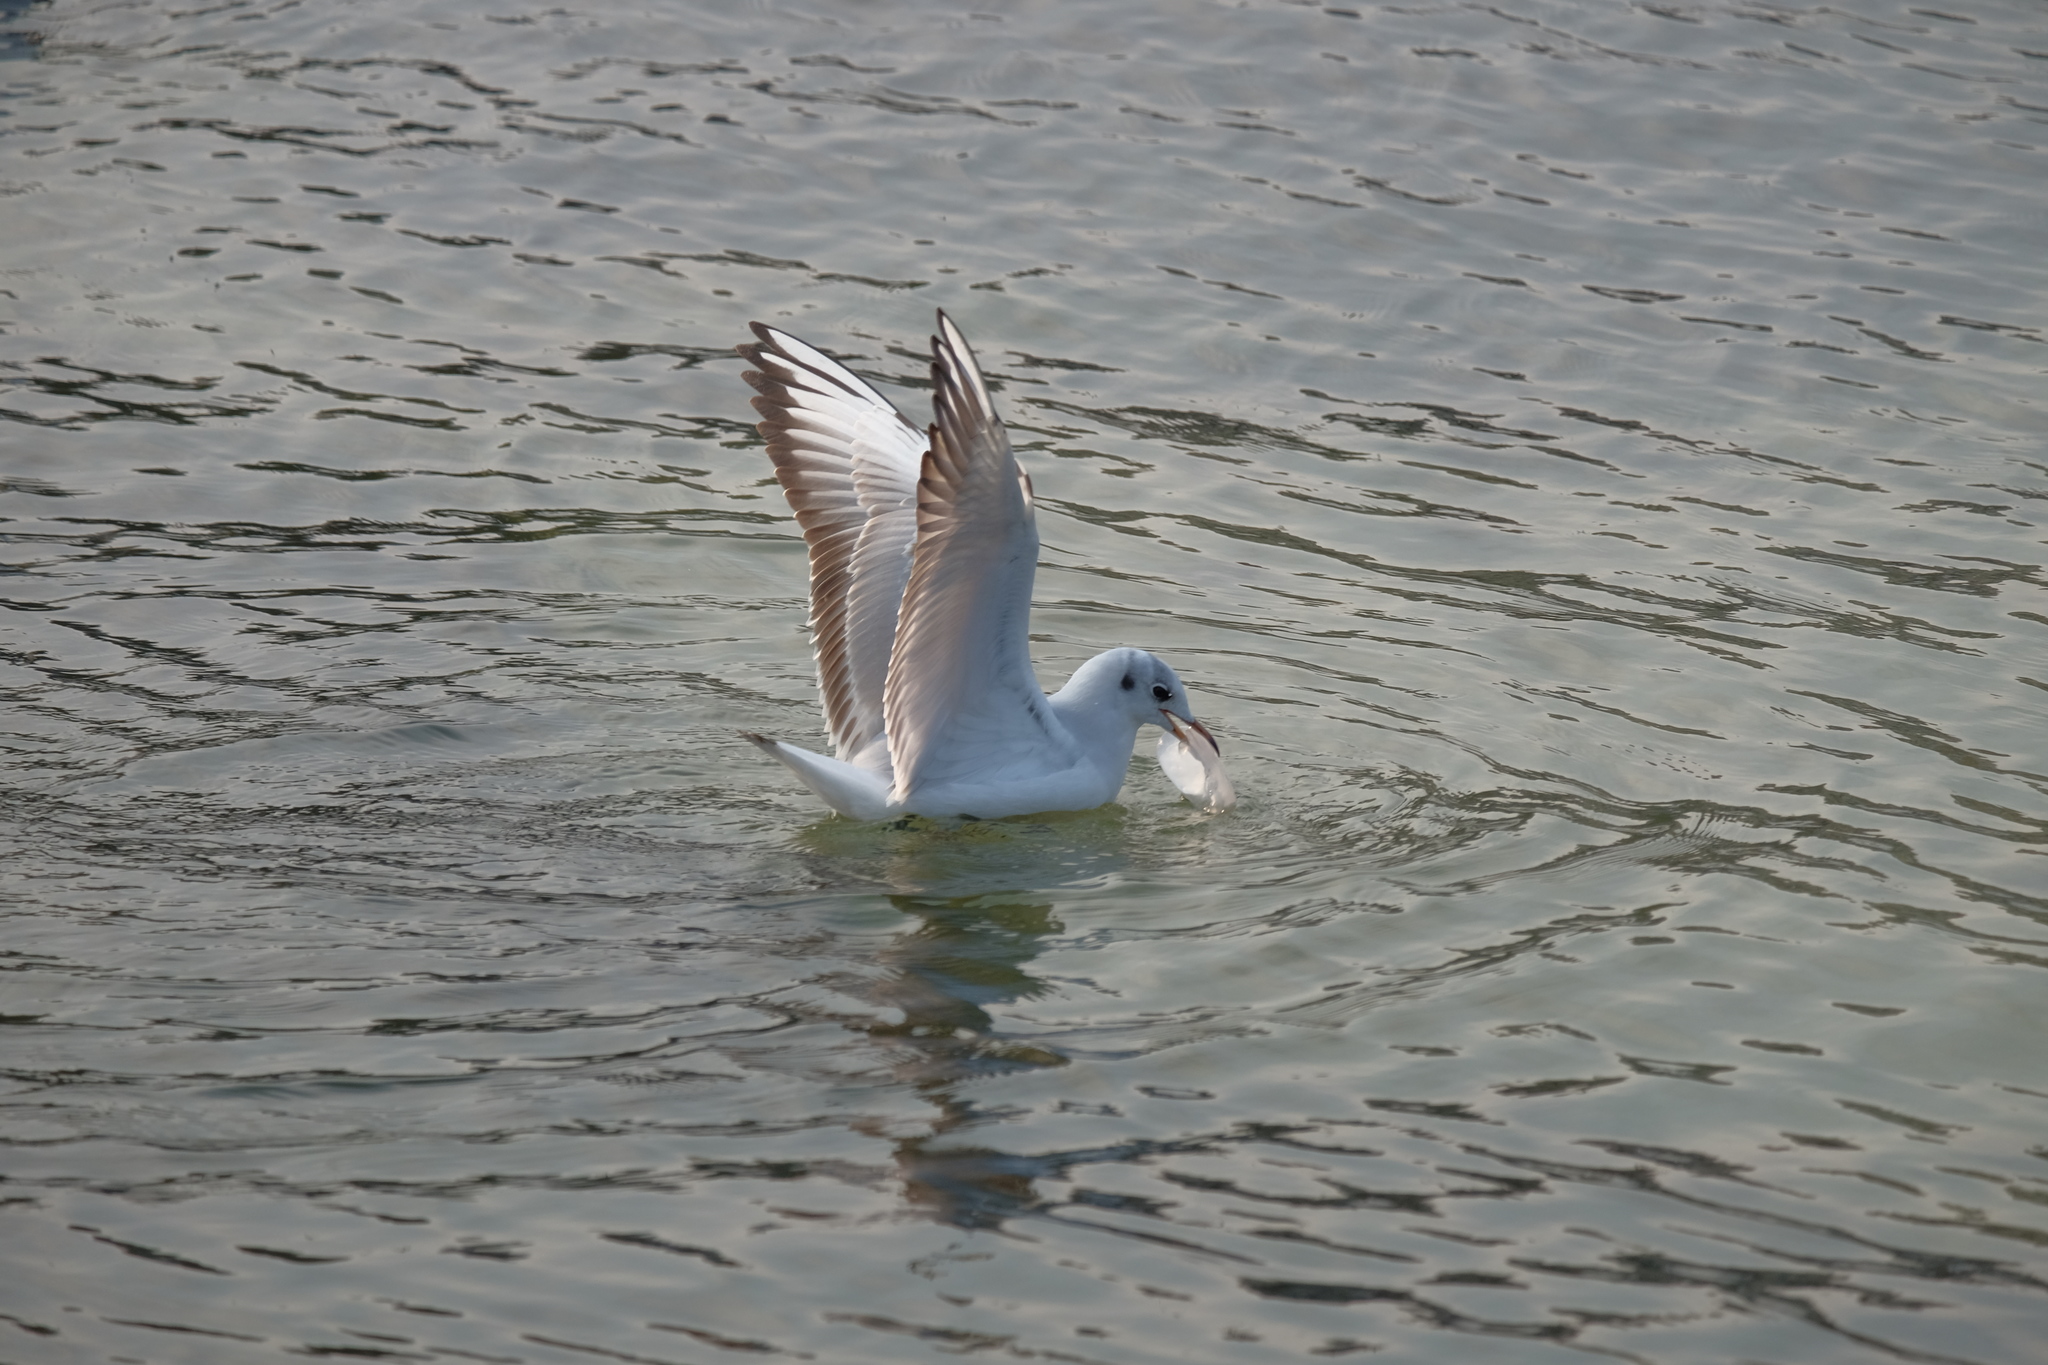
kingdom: Animalia
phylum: Chordata
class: Aves
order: Charadriiformes
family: Laridae
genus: Chroicocephalus
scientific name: Chroicocephalus ridibundus
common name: Black-headed gull
